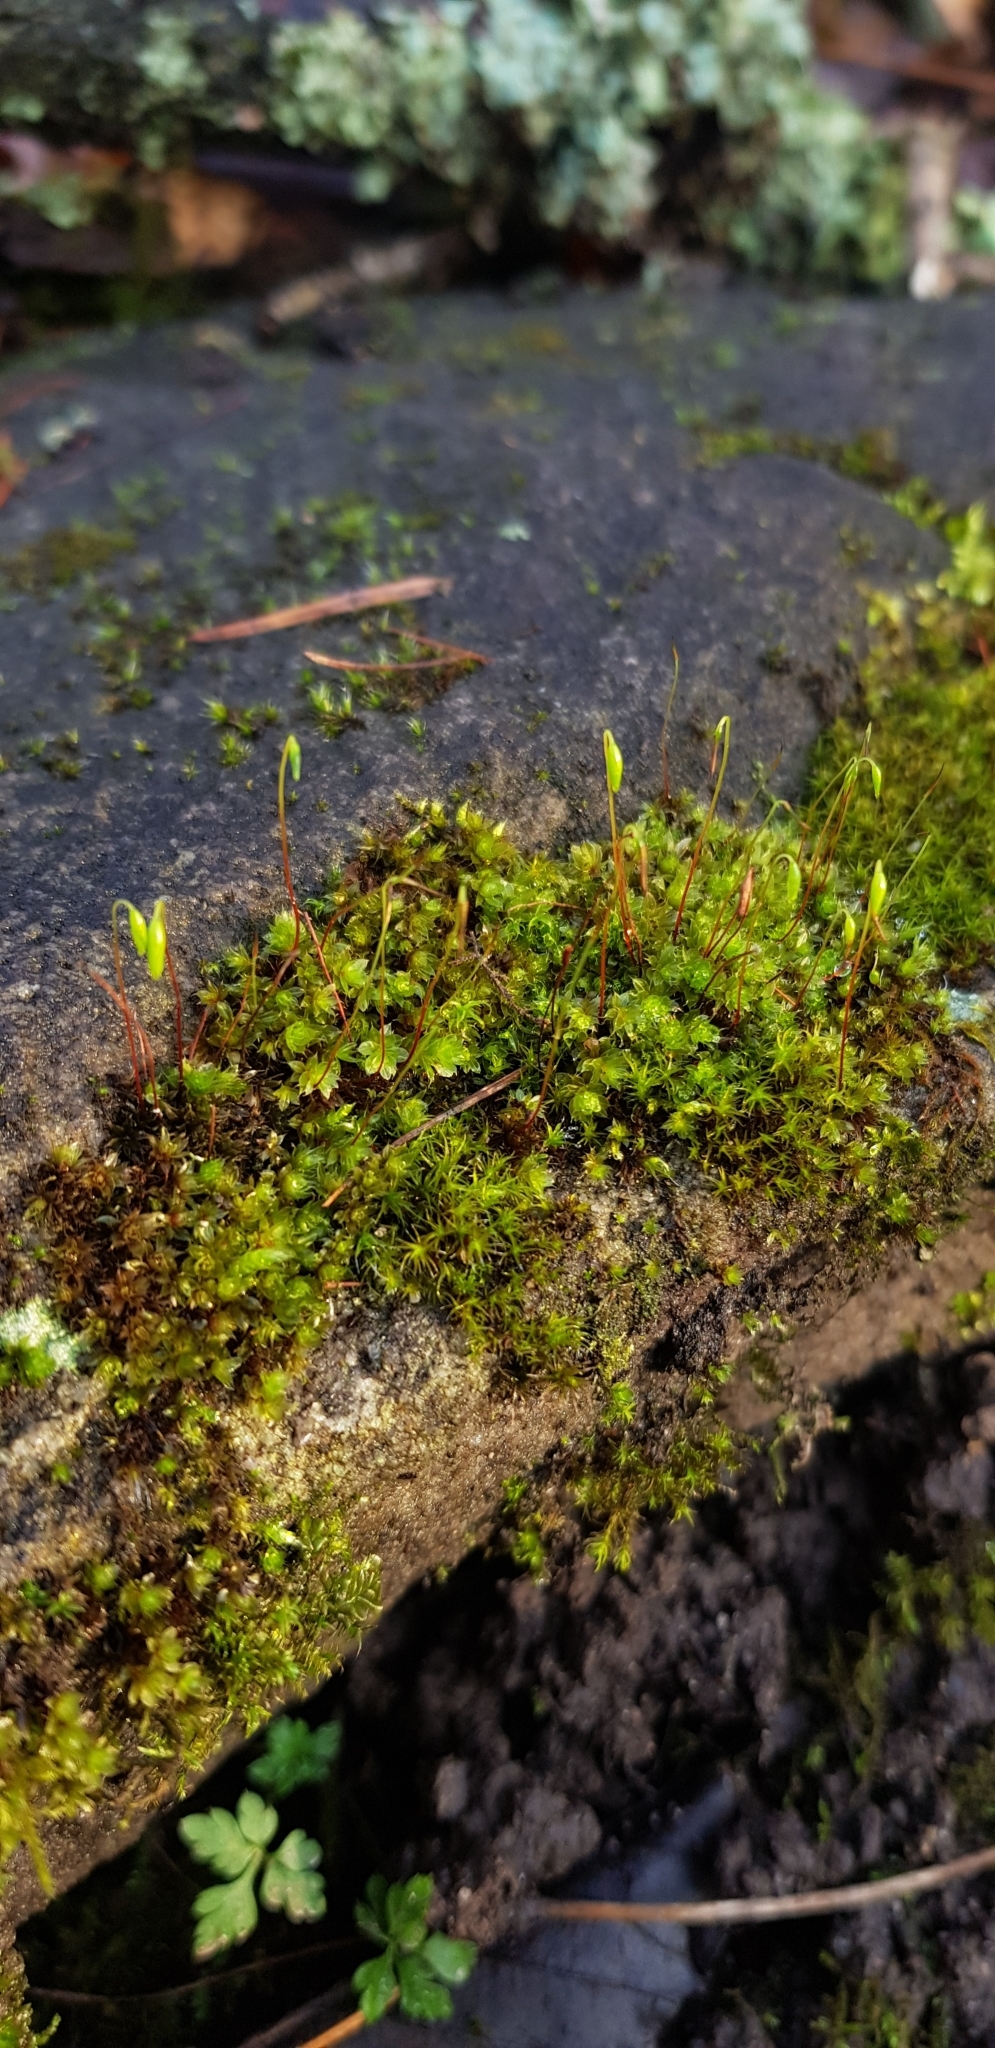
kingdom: Plantae
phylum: Bryophyta
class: Bryopsida
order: Bryales
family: Bryaceae
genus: Rosulabryum
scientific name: Rosulabryum capillare
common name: Capillary thread-moss
